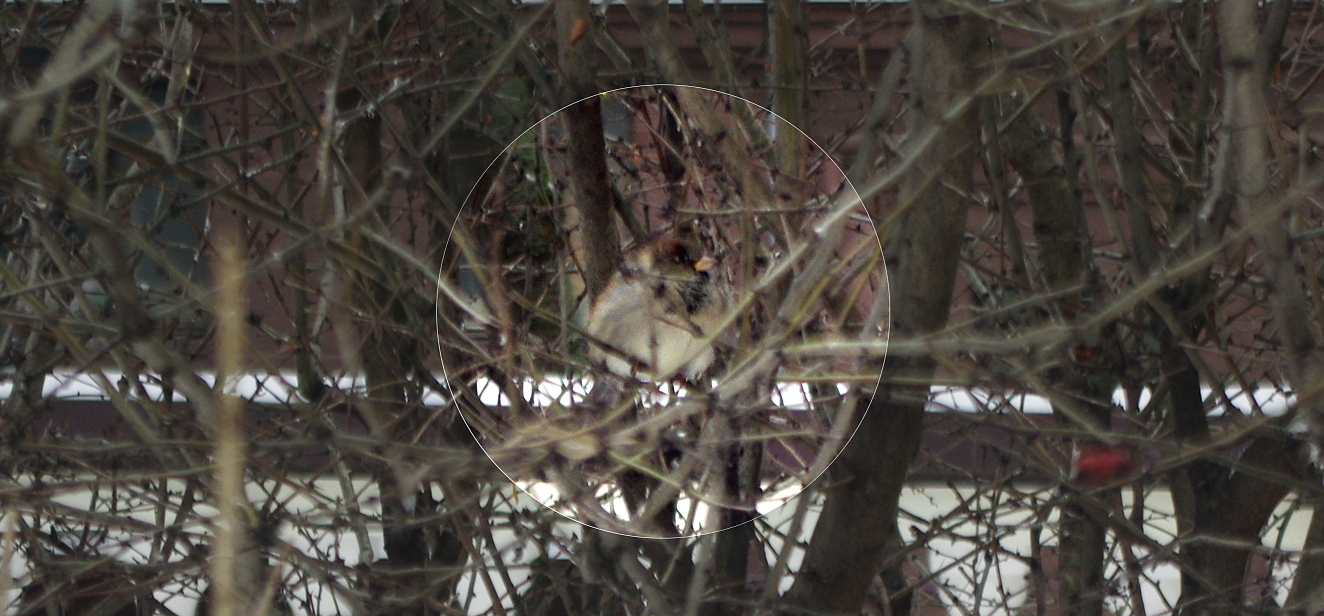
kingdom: Animalia
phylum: Chordata
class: Aves
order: Passeriformes
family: Passeridae
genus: Passer
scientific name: Passer domesticus
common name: House sparrow
